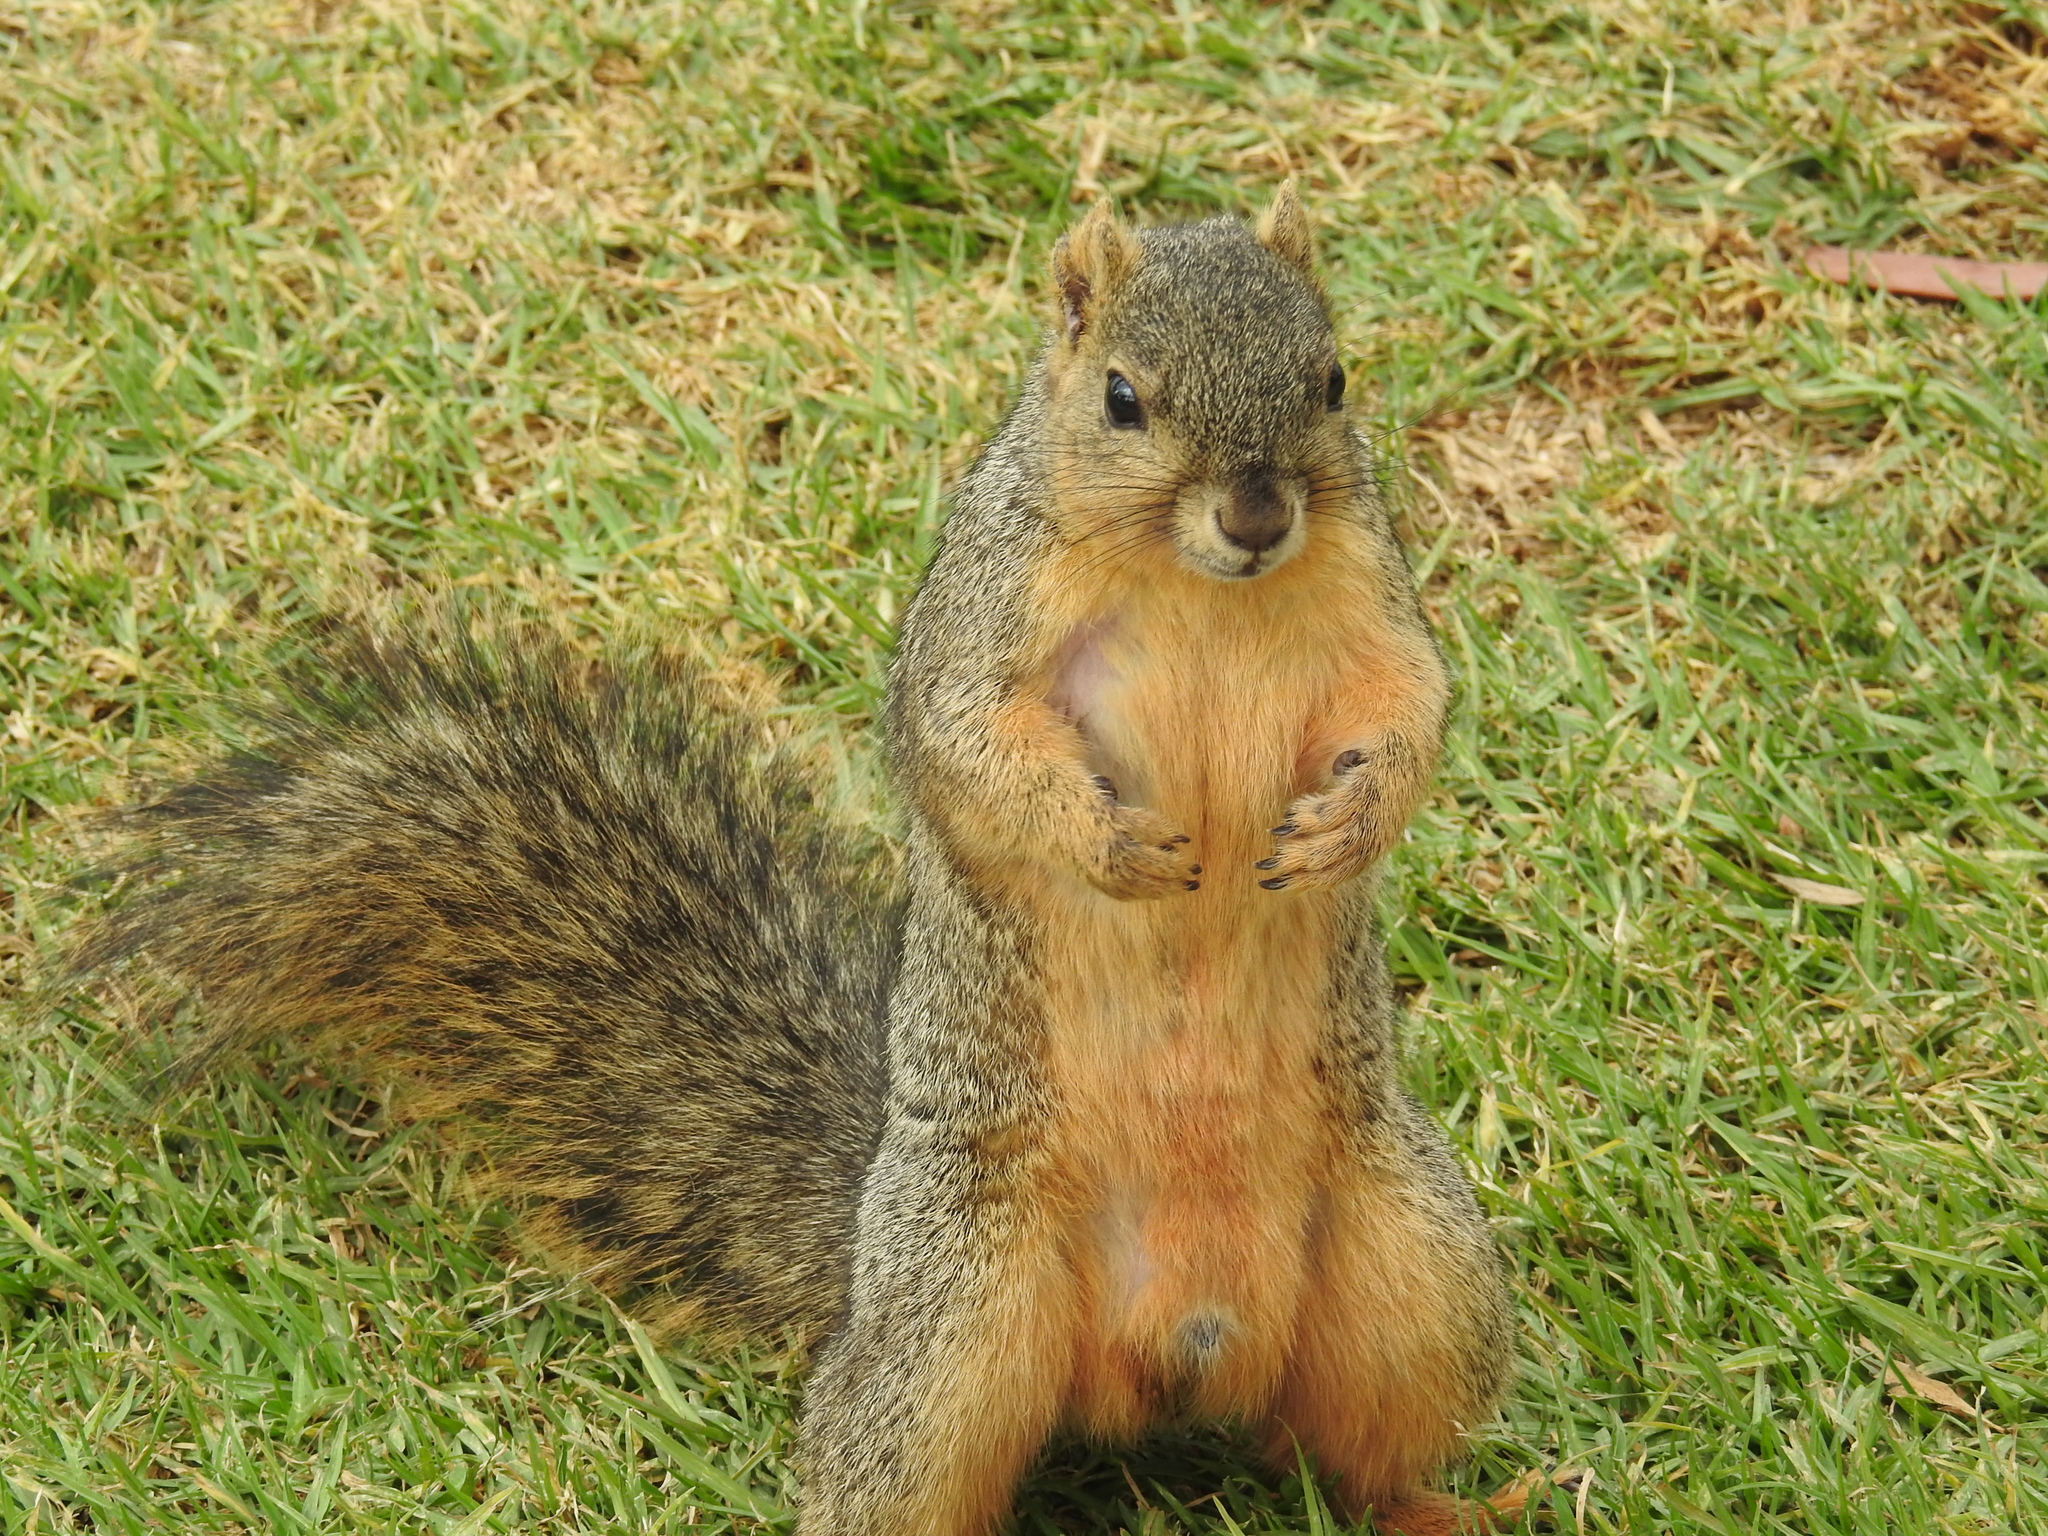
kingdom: Animalia
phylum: Chordata
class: Mammalia
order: Rodentia
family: Sciuridae
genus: Sciurus
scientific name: Sciurus niger
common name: Fox squirrel
